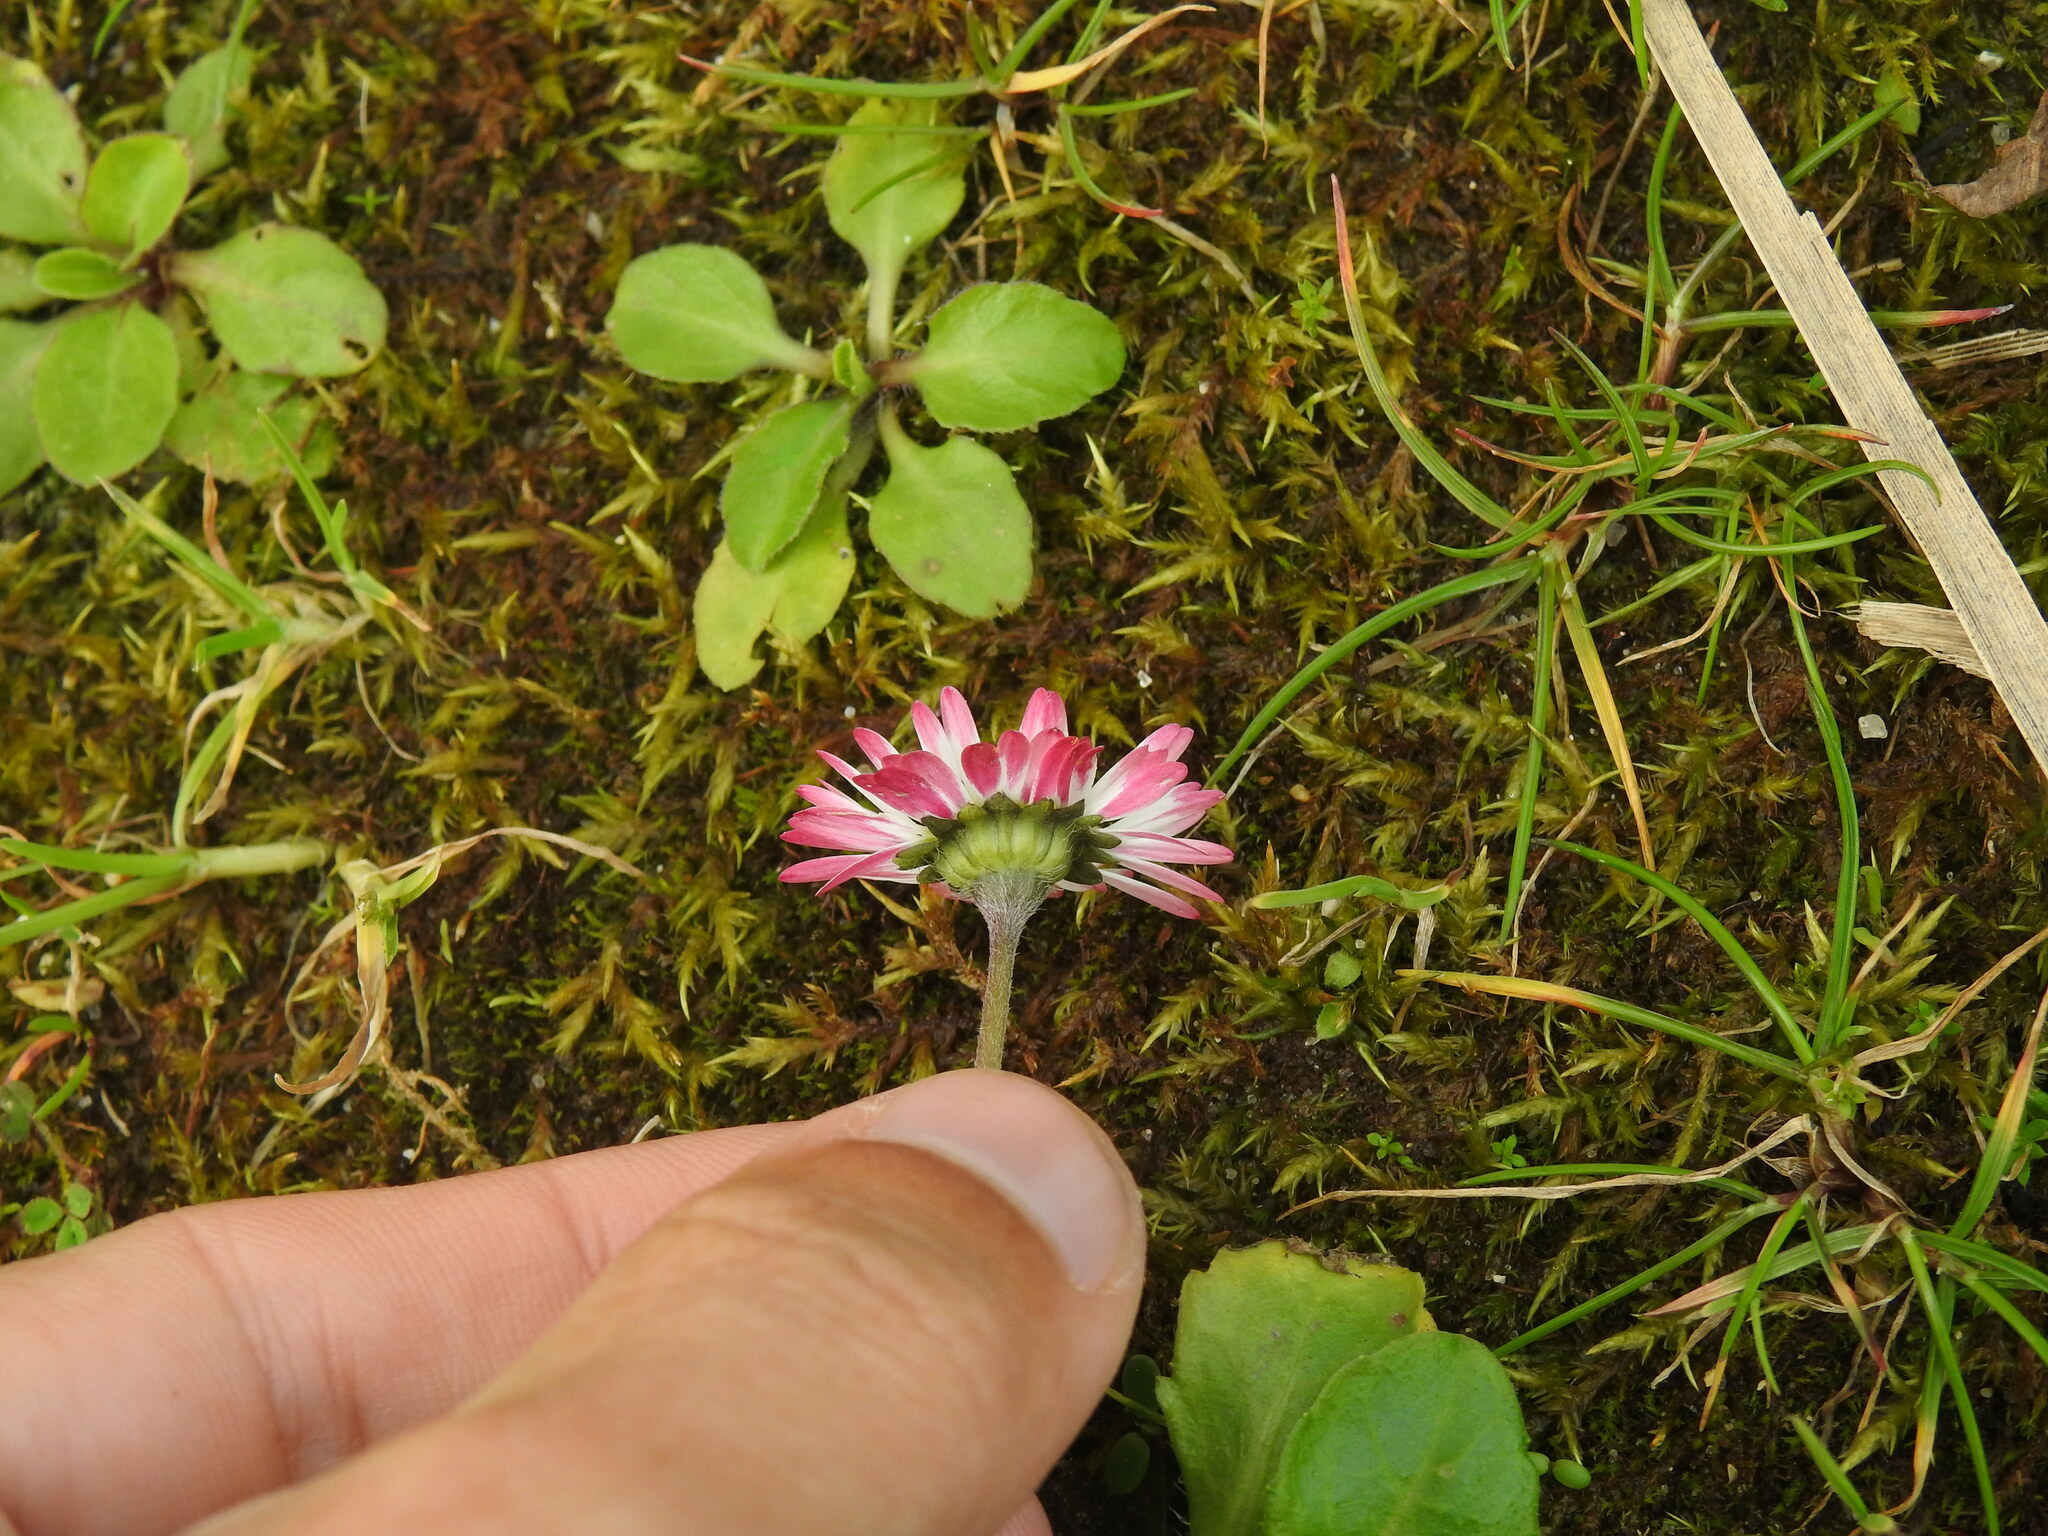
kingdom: Plantae
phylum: Tracheophyta
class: Magnoliopsida
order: Asterales
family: Asteraceae
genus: Bellis
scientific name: Bellis perennis
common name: Lawndaisy
